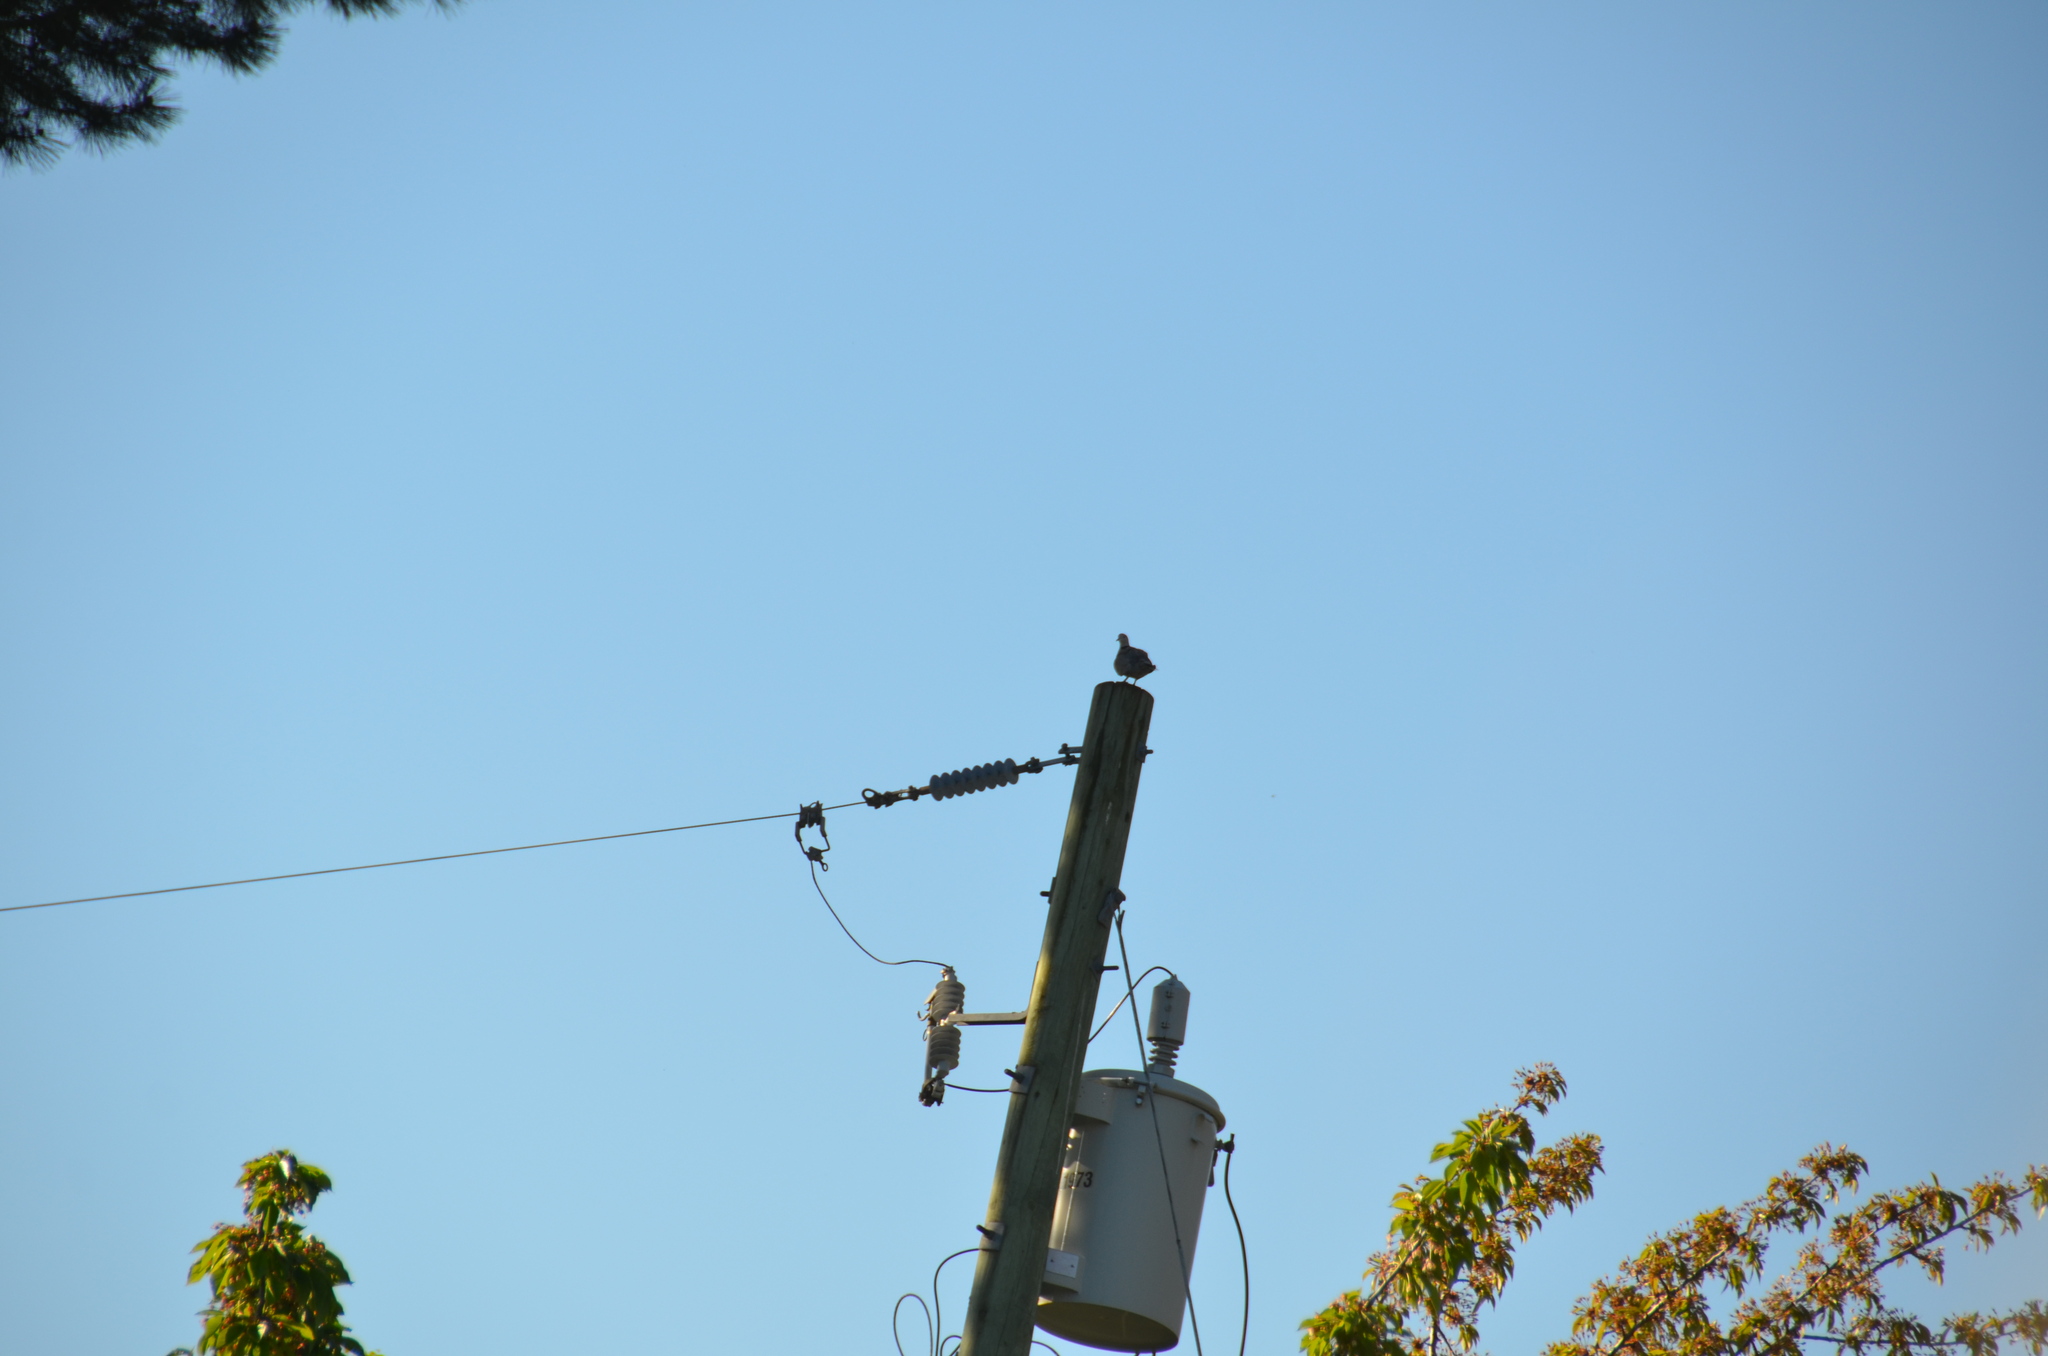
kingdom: Animalia
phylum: Chordata
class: Aves
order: Columbiformes
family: Columbidae
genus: Streptopelia
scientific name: Streptopelia decaocto
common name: Eurasian collared dove
